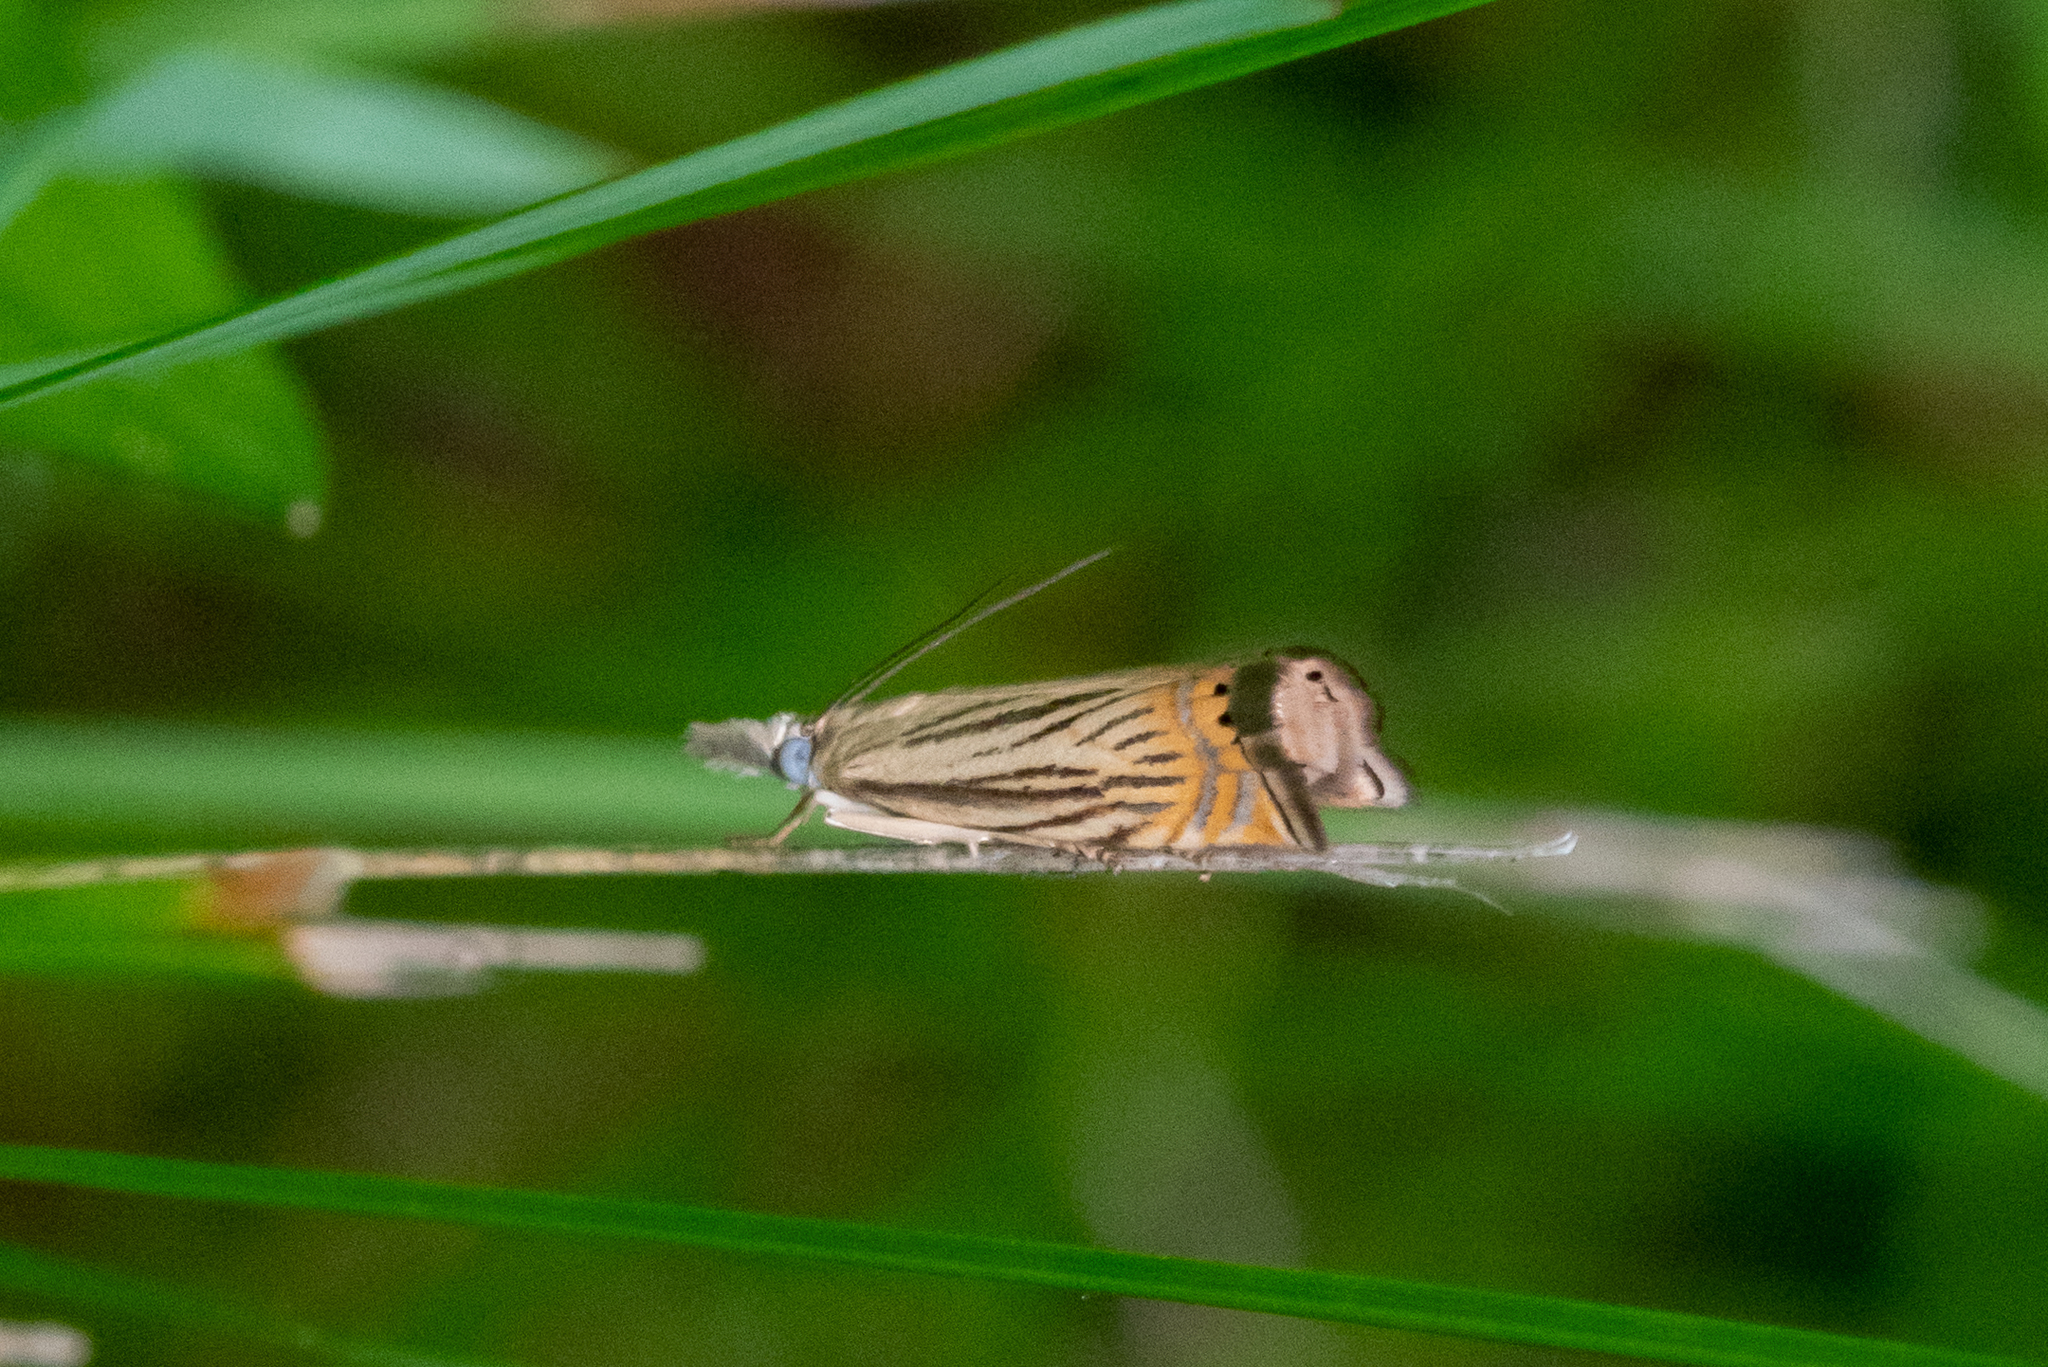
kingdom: Animalia
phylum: Arthropoda
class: Insecta
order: Lepidoptera
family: Crambidae
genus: Chrysoteuchia
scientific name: Chrysoteuchia topiarius
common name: Topiary grass-veneer
